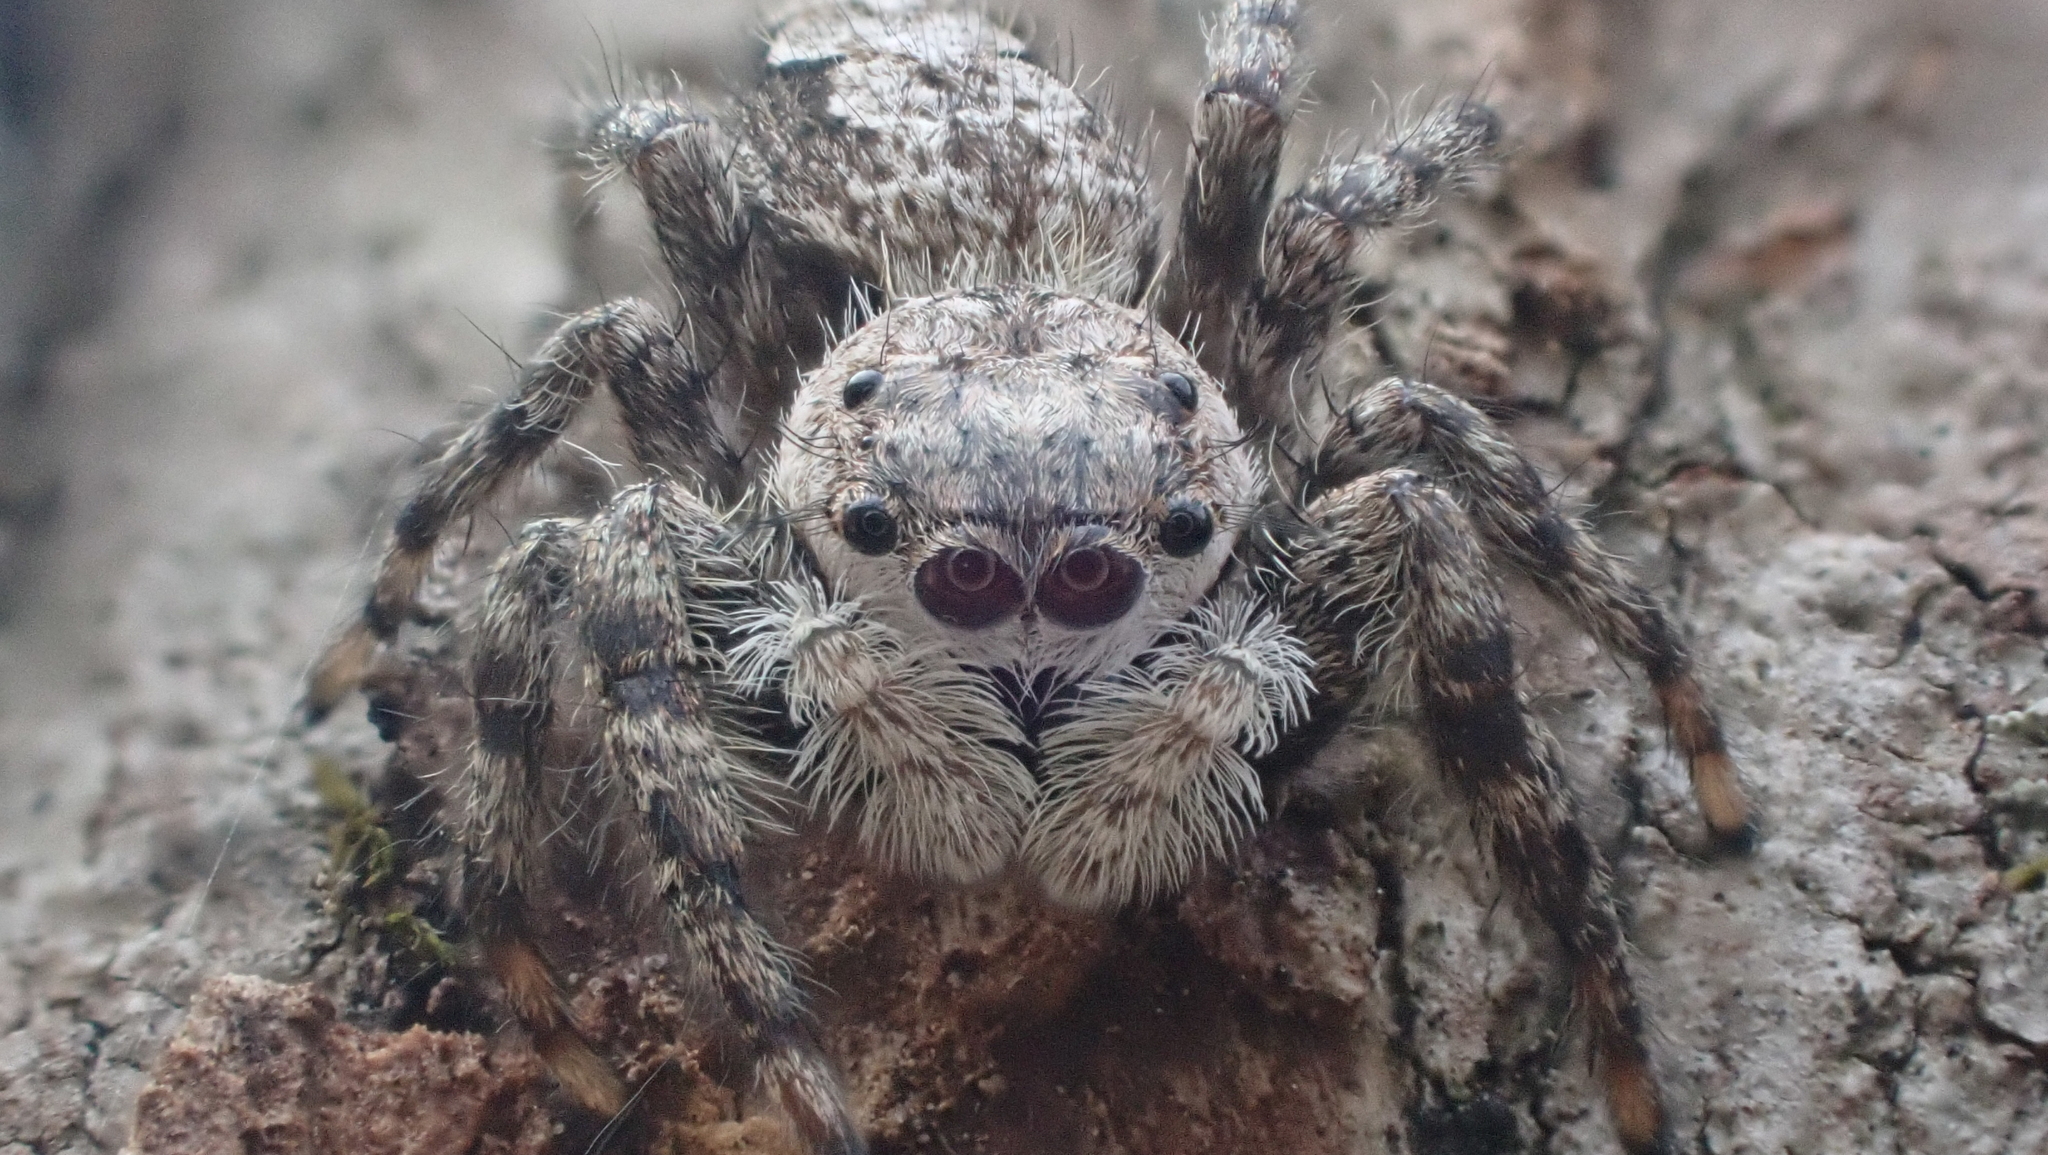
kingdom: Animalia
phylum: Arthropoda
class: Arachnida
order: Araneae
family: Salticidae
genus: Platycryptus
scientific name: Platycryptus undatus
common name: Tan jumping spider
